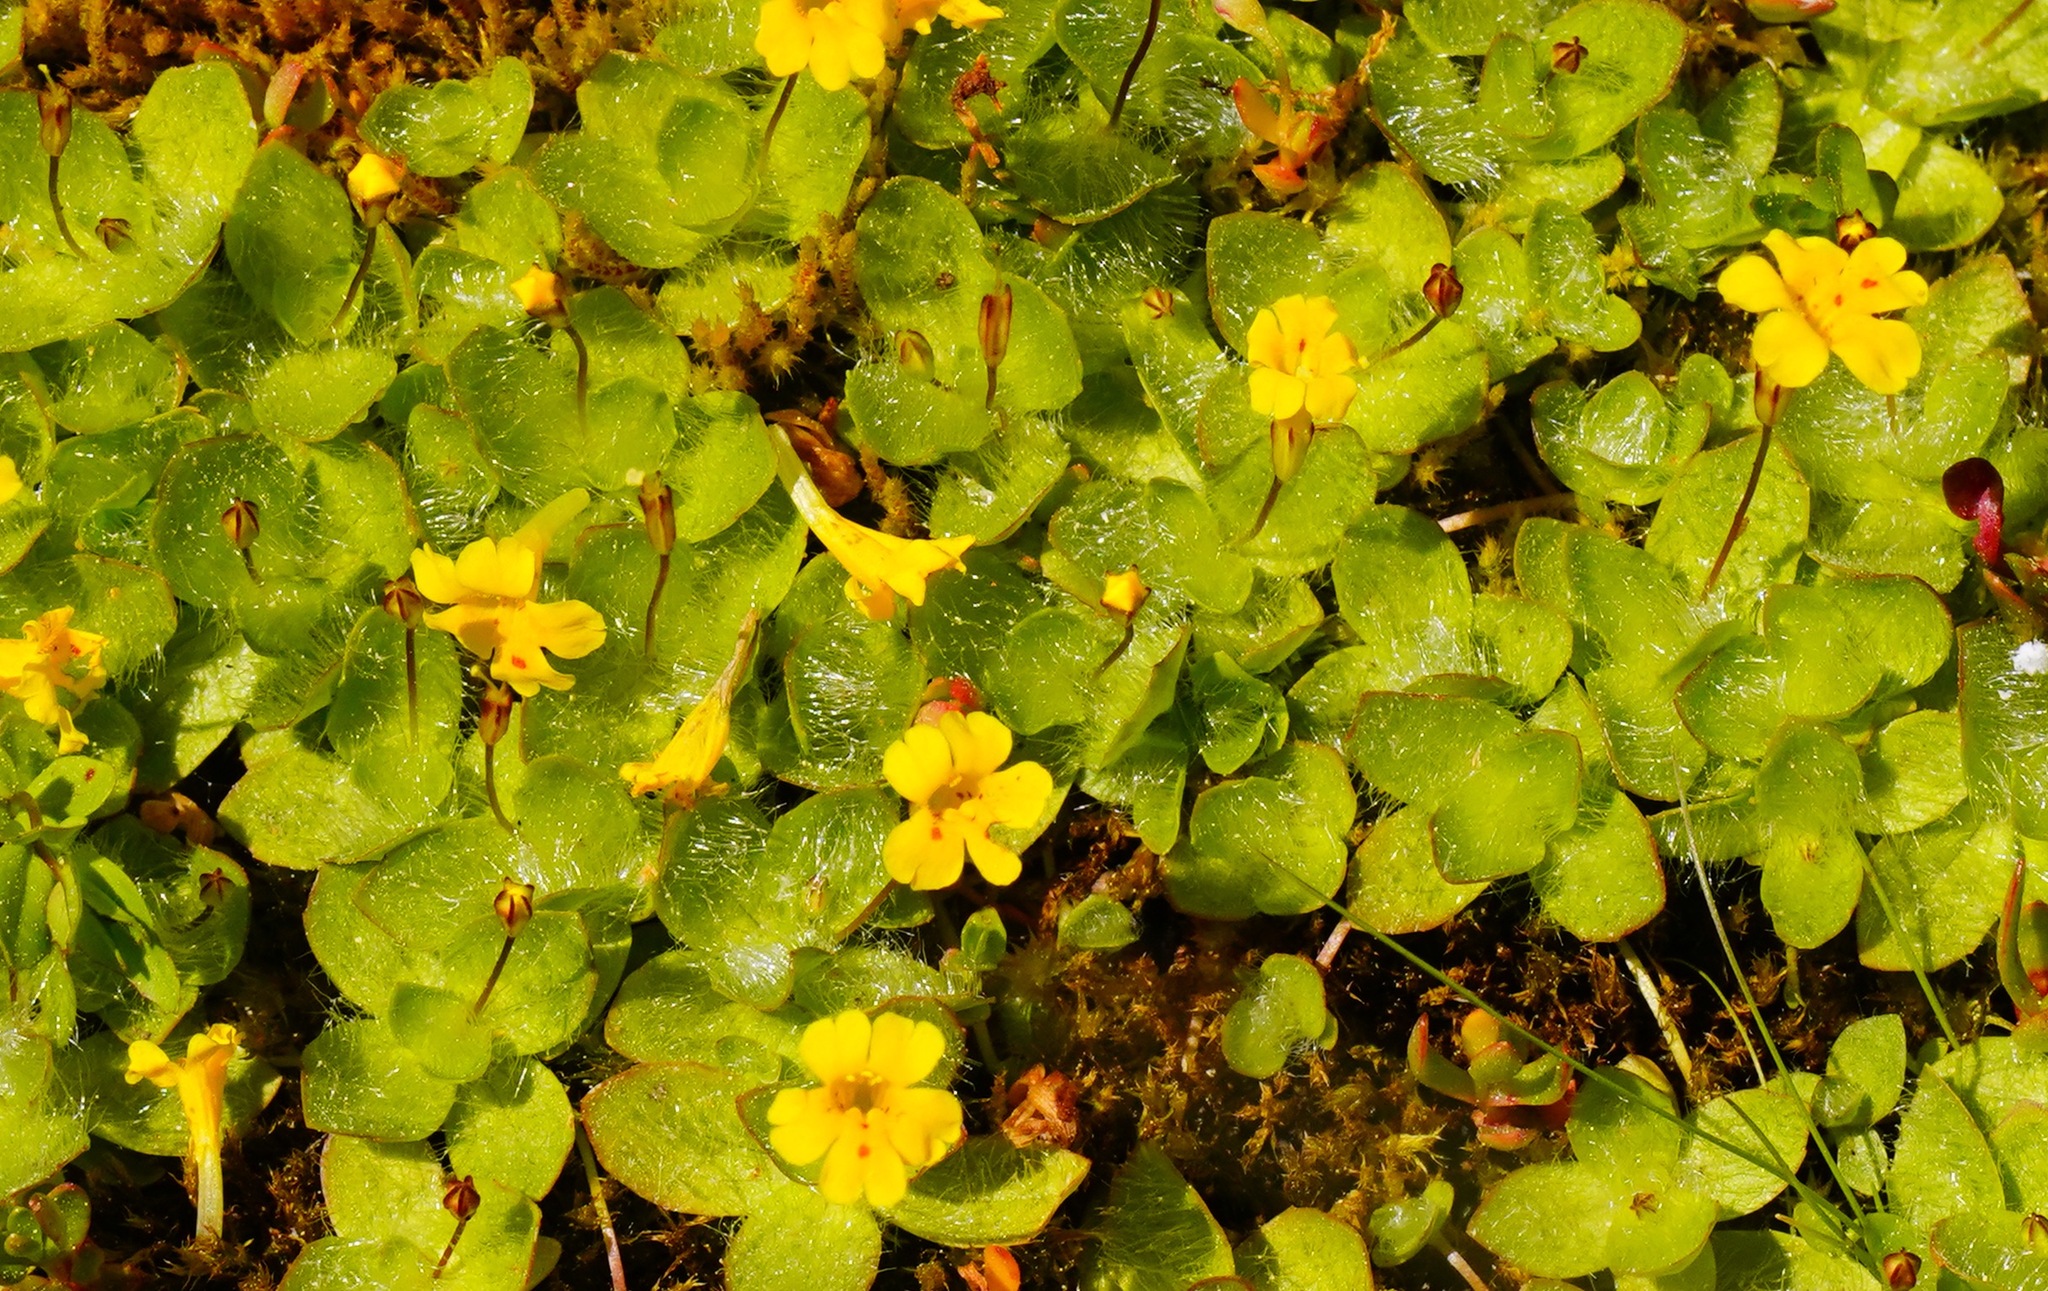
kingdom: Plantae
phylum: Tracheophyta
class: Magnoliopsida
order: Lamiales
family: Phrymaceae
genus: Erythranthe
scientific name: Erythranthe primuloides
